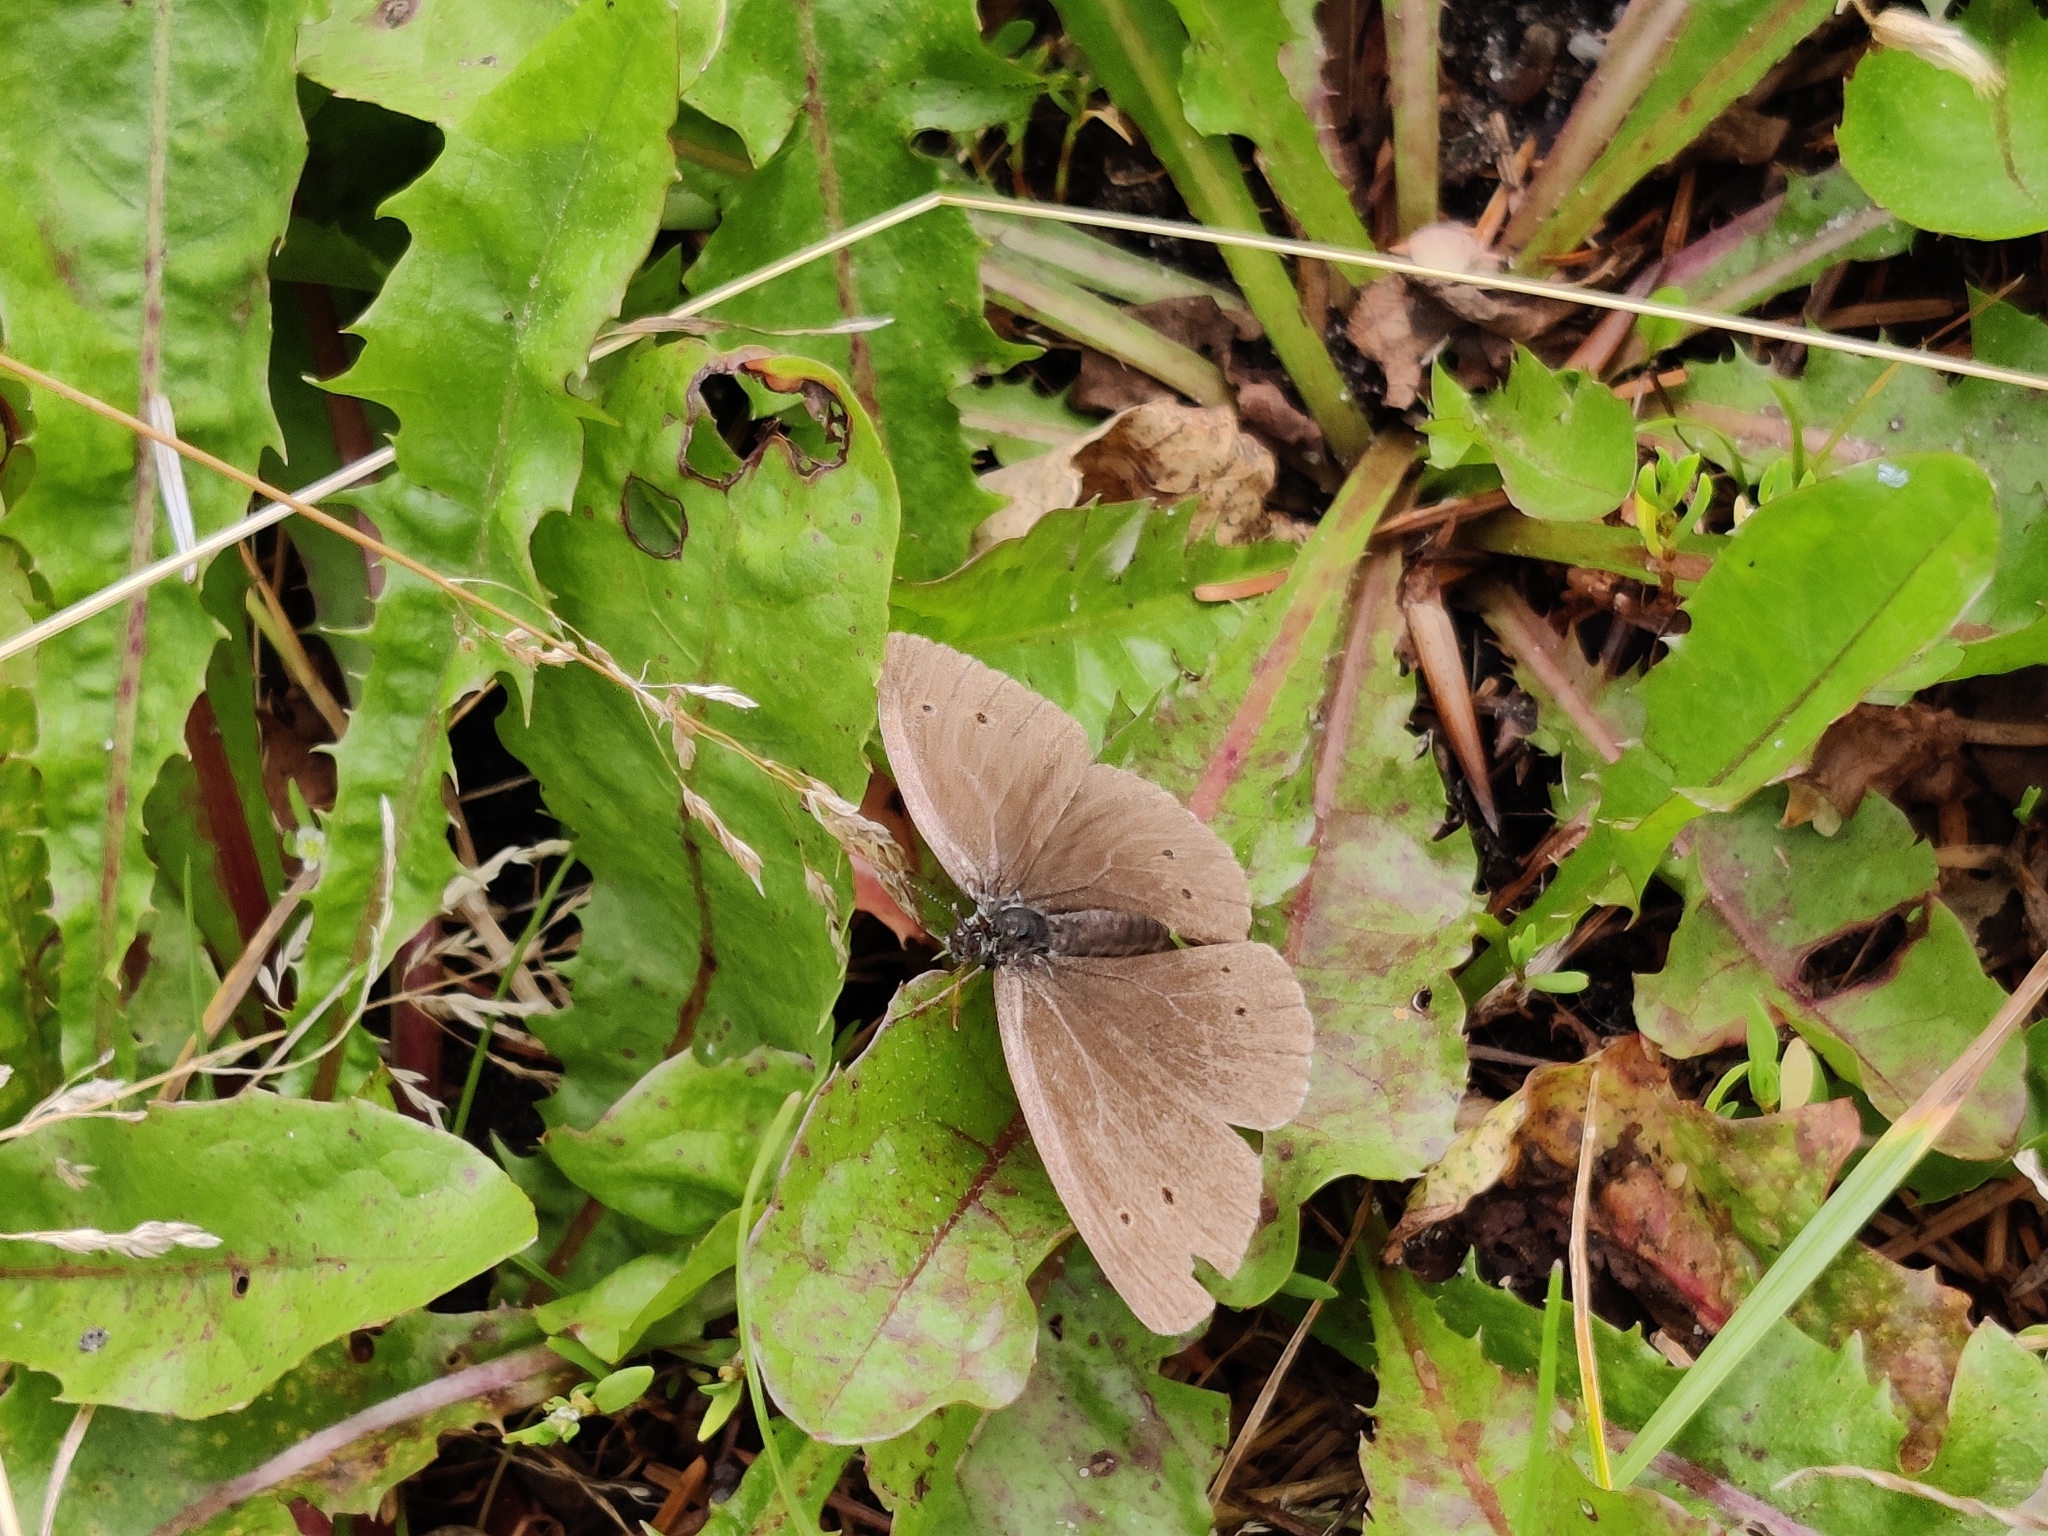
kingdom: Animalia
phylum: Arthropoda
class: Insecta
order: Lepidoptera
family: Nymphalidae
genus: Aphantopus
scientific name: Aphantopus hyperantus
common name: Ringlet
